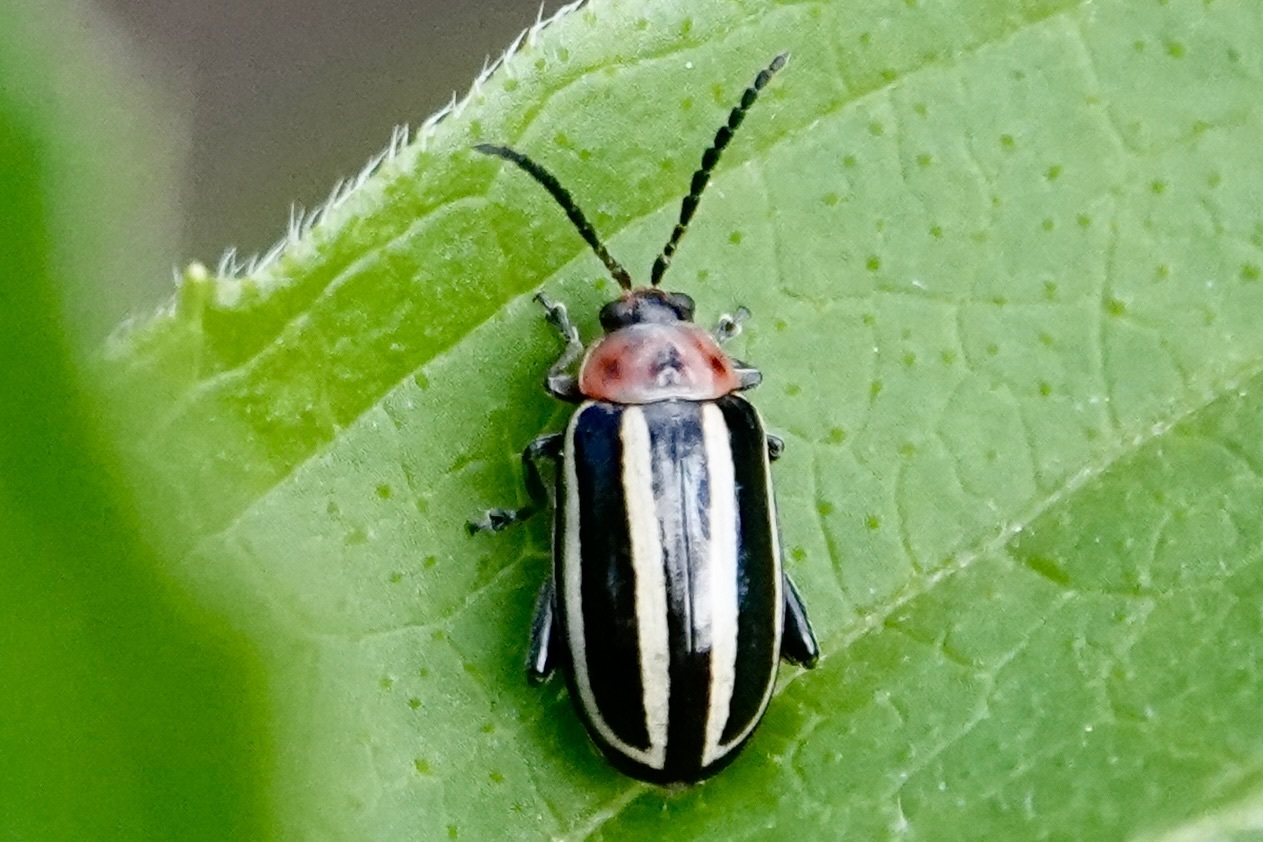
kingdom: Animalia
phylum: Arthropoda
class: Insecta
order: Coleoptera
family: Chrysomelidae
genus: Disonycha
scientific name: Disonycha glabrata
